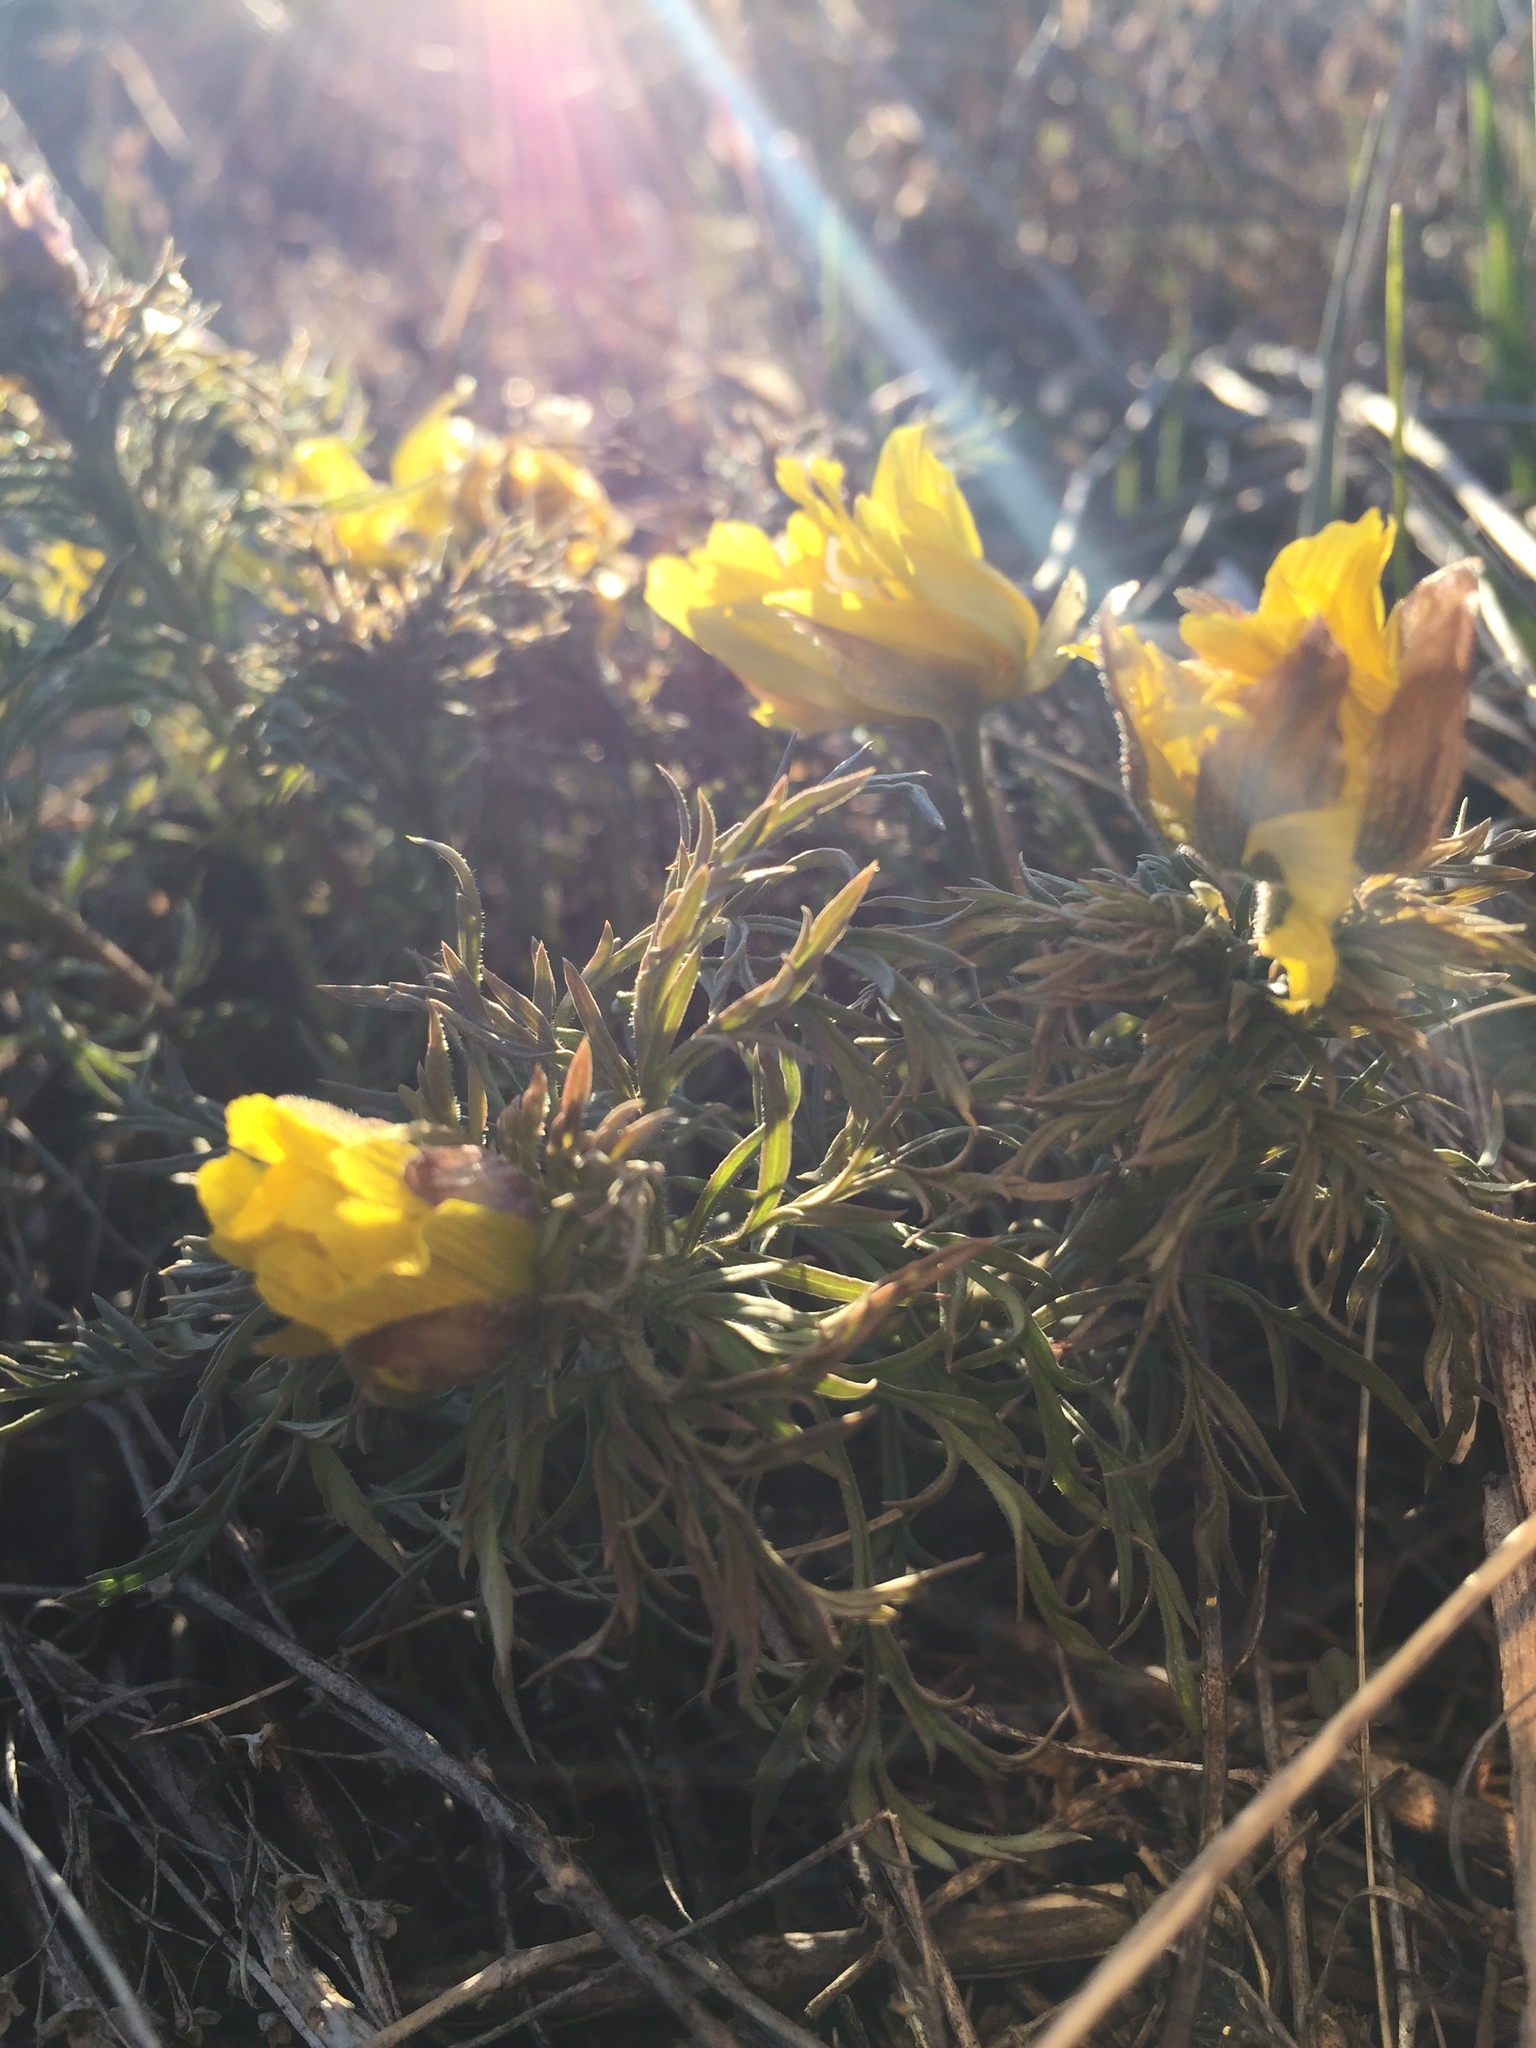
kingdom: Plantae
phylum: Tracheophyta
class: Magnoliopsida
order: Ranunculales
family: Ranunculaceae
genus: Adonis
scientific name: Adonis volgensis
